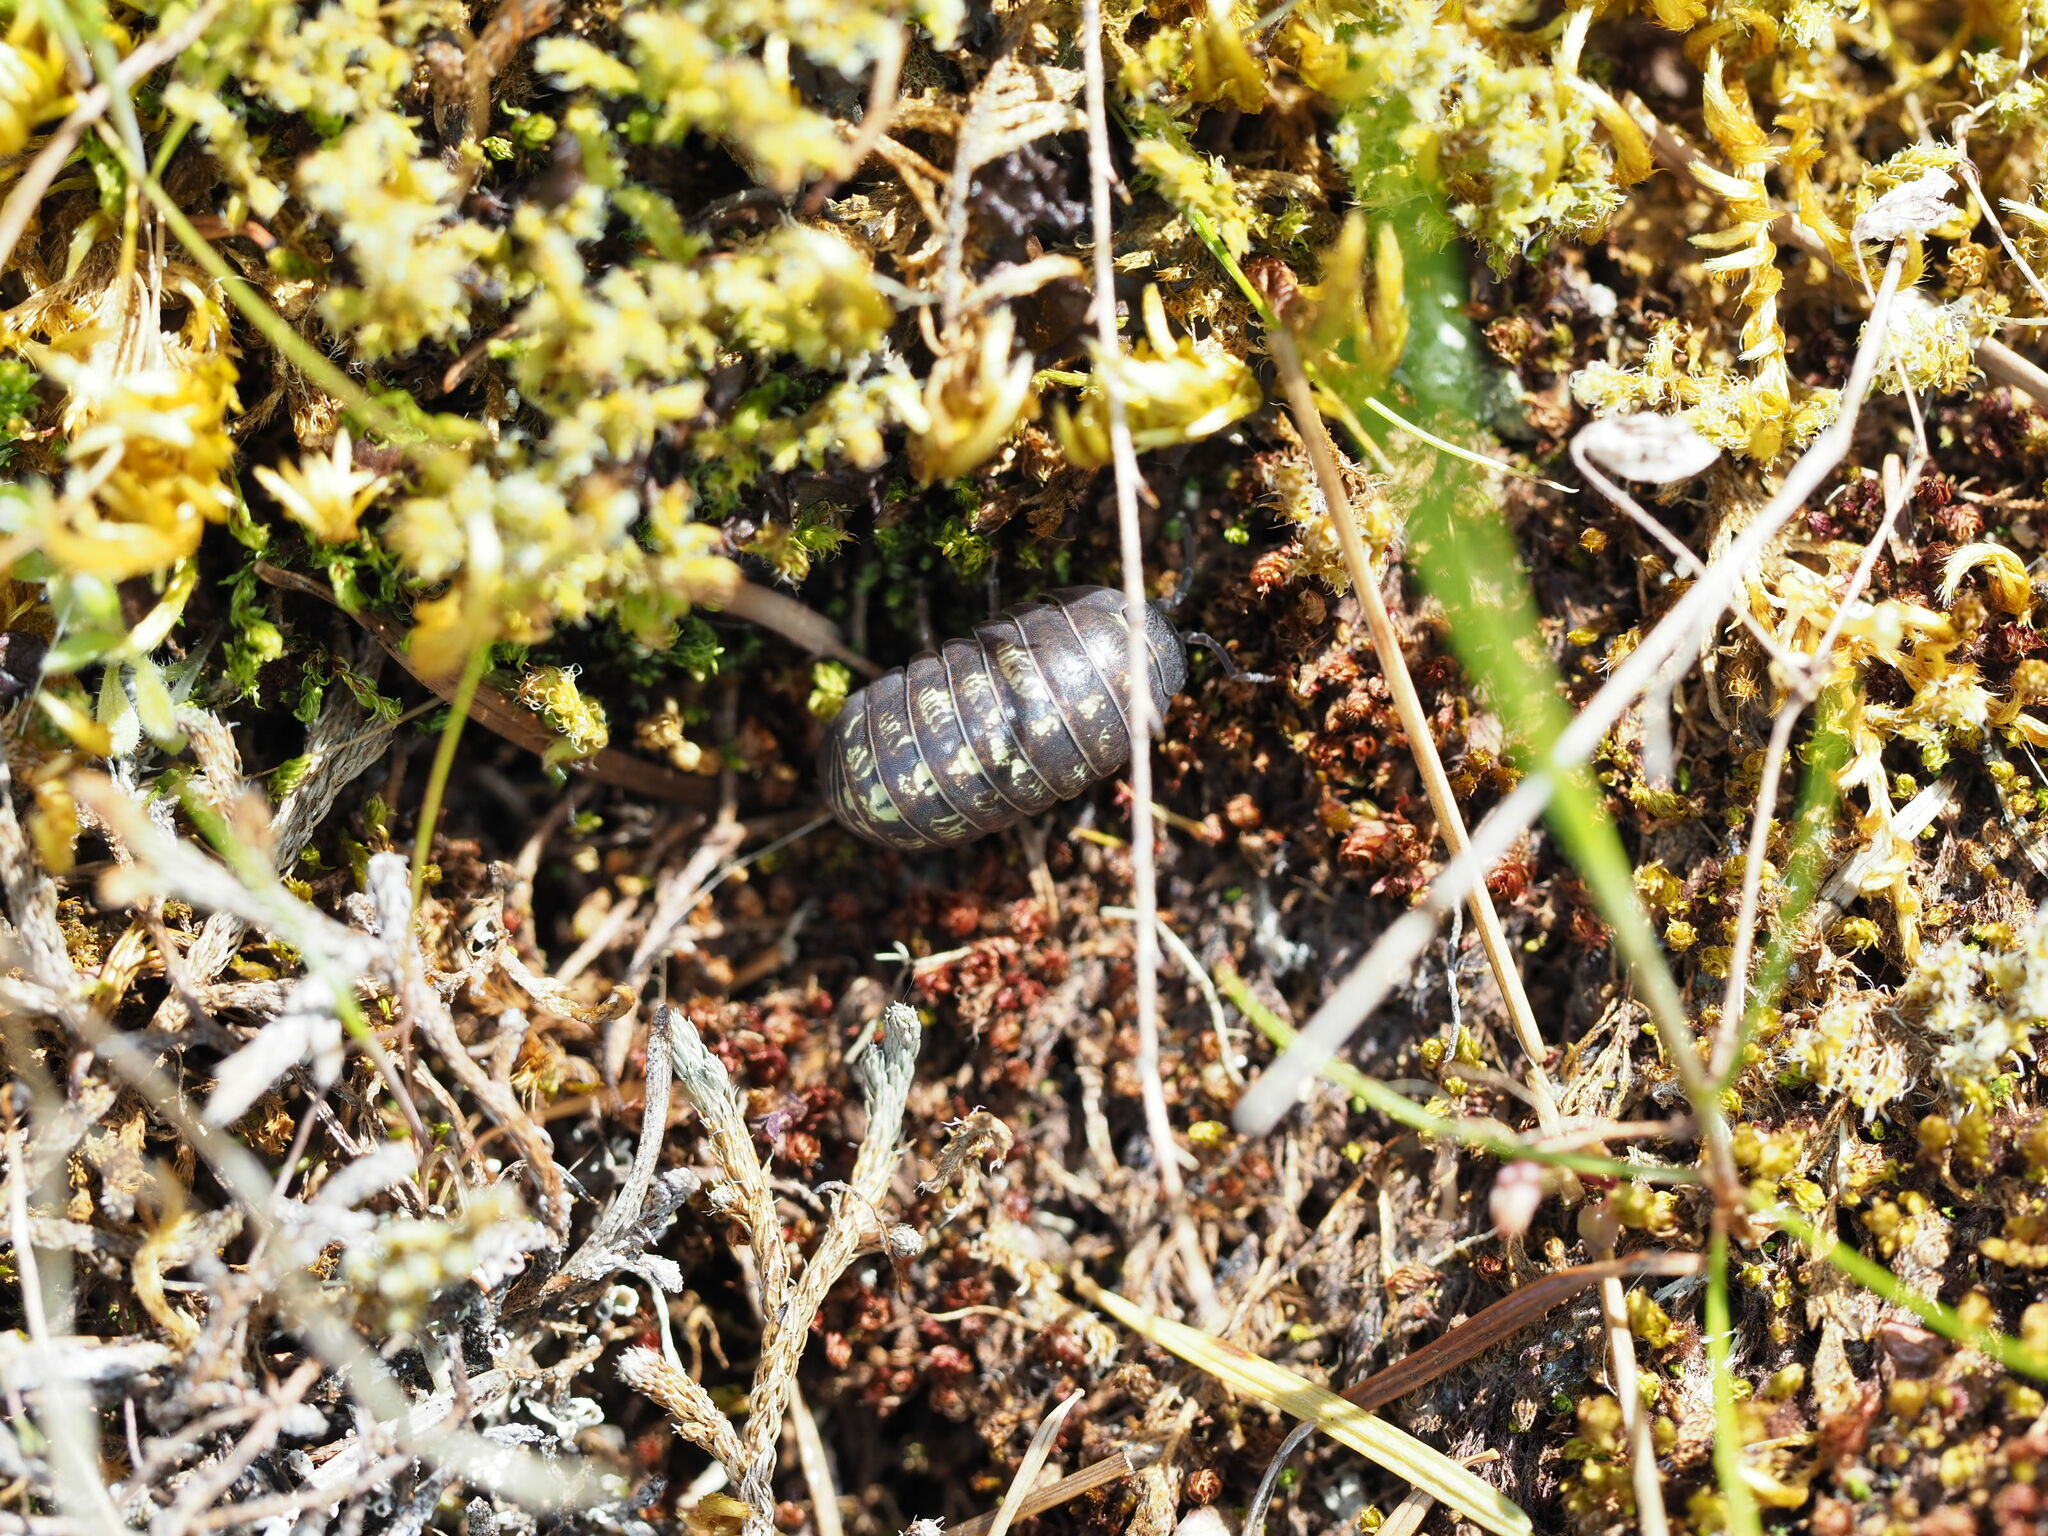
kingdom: Animalia
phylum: Arthropoda
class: Malacostraca
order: Isopoda
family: Armadillidiidae
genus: Armadillidium
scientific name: Armadillidium vulgare
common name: Common pill woodlouse
